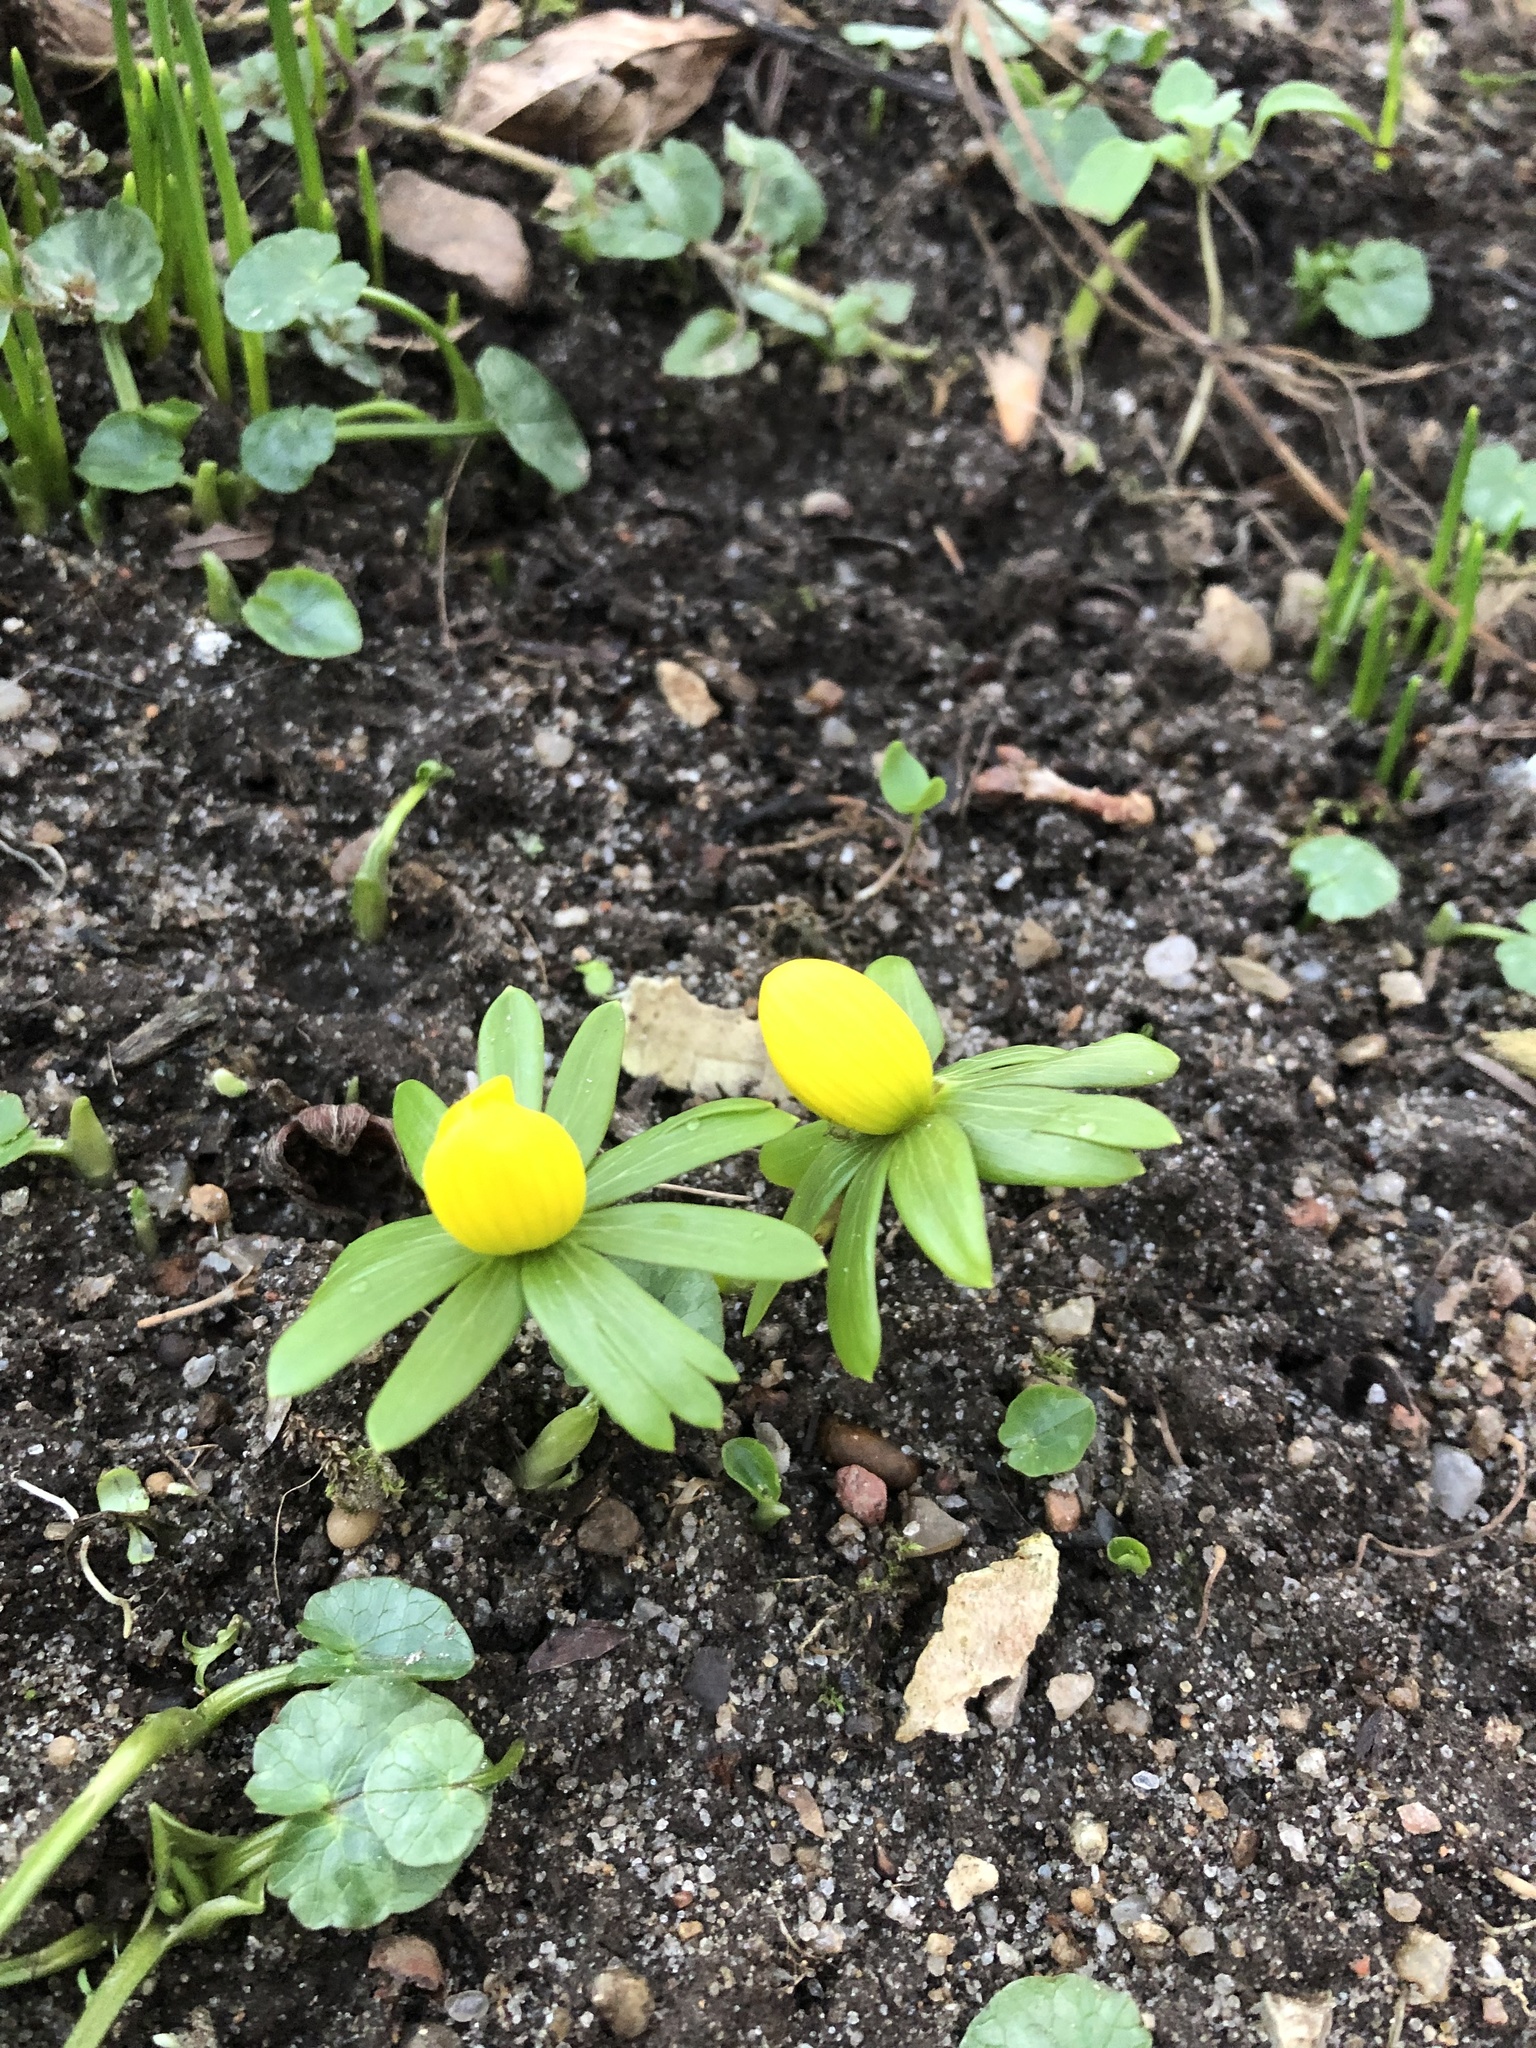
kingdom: Plantae
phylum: Tracheophyta
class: Magnoliopsida
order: Ranunculales
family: Ranunculaceae
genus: Eranthis
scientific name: Eranthis hyemalis
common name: Winter aconite
